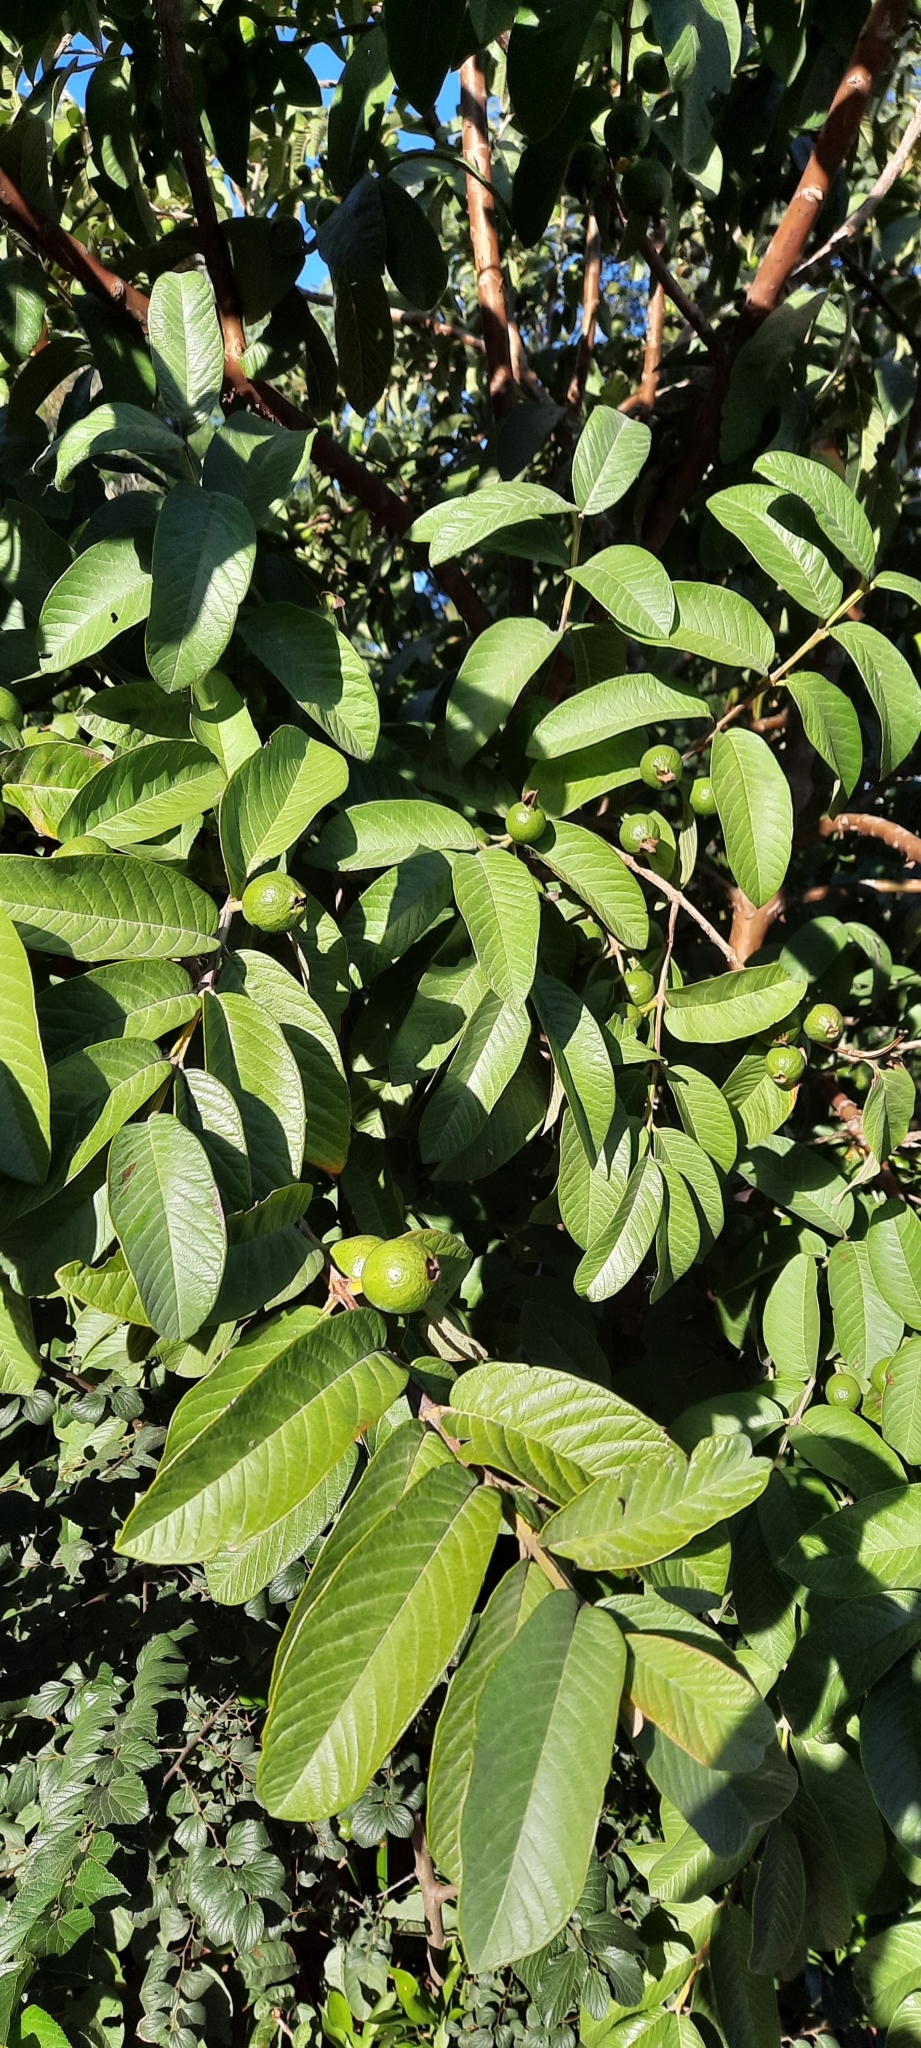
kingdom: Plantae
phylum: Tracheophyta
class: Magnoliopsida
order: Myrtales
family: Myrtaceae
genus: Psidium
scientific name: Psidium guajava
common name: Guava
